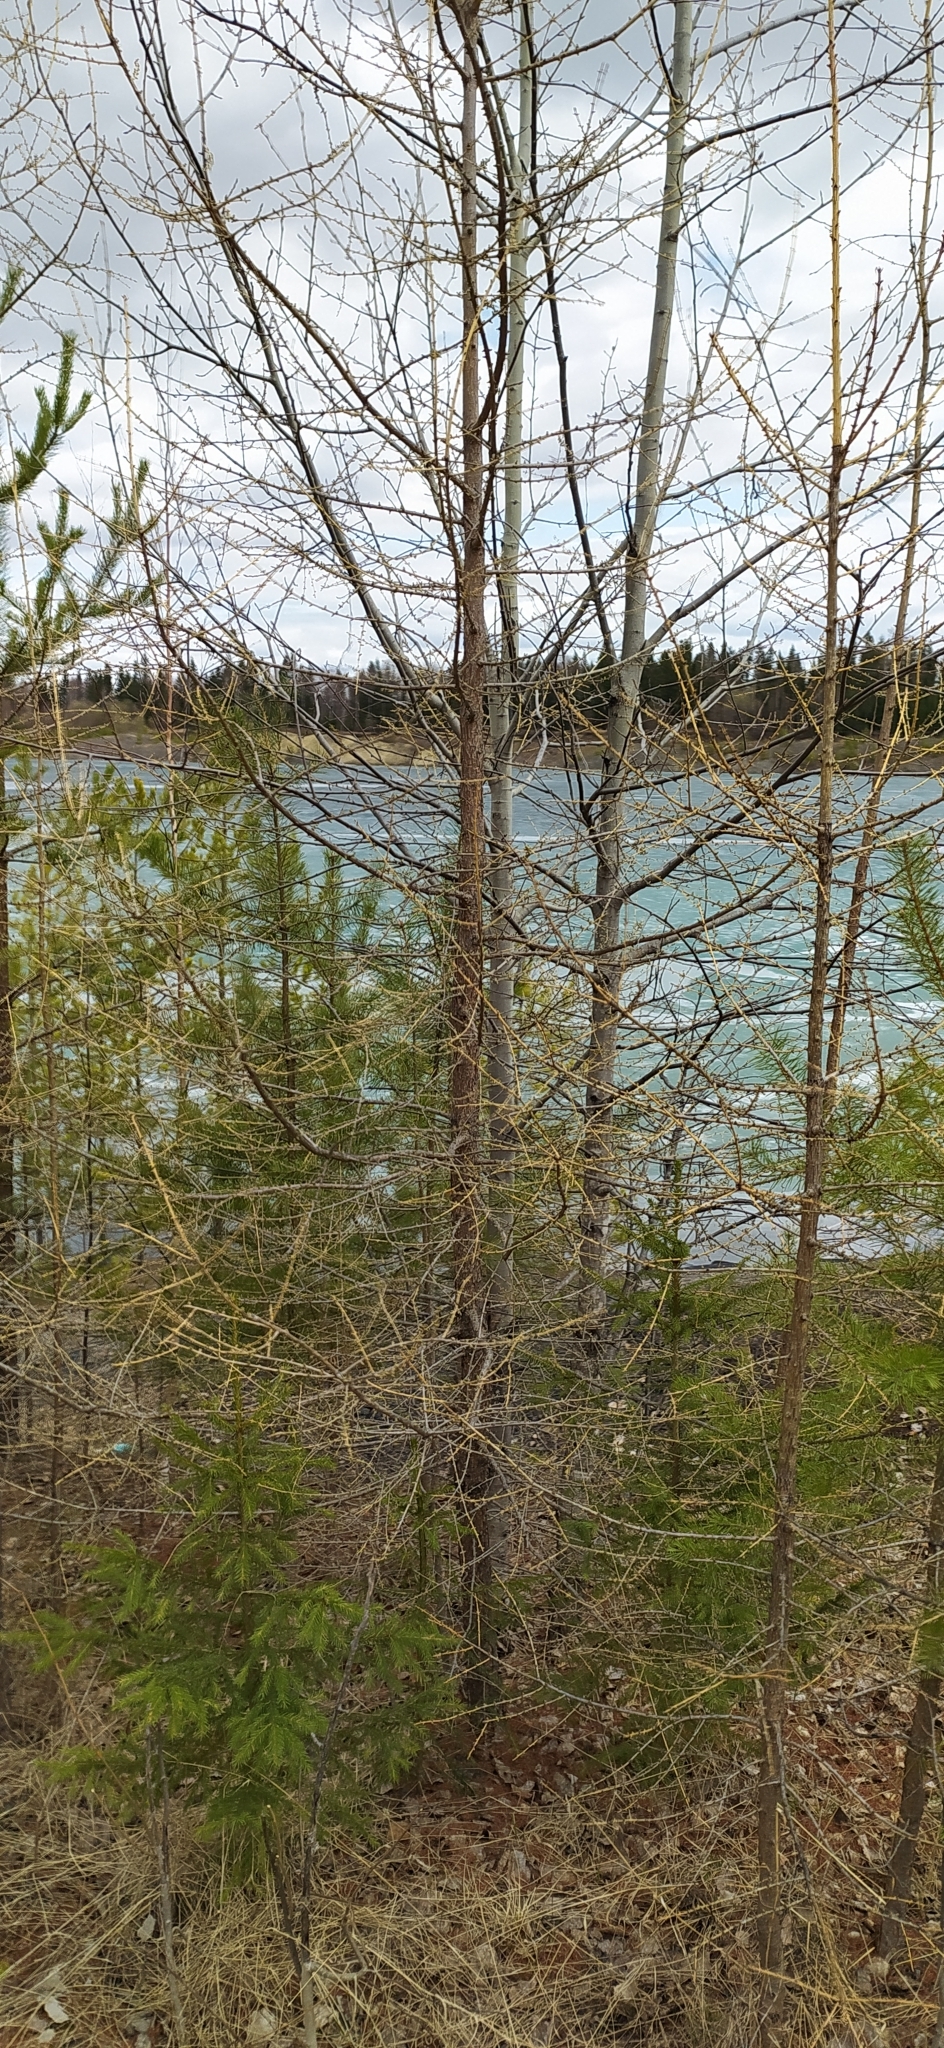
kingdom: Plantae
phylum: Tracheophyta
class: Pinopsida
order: Pinales
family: Pinaceae
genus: Larix
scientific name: Larix sibirica
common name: Siberian larch
